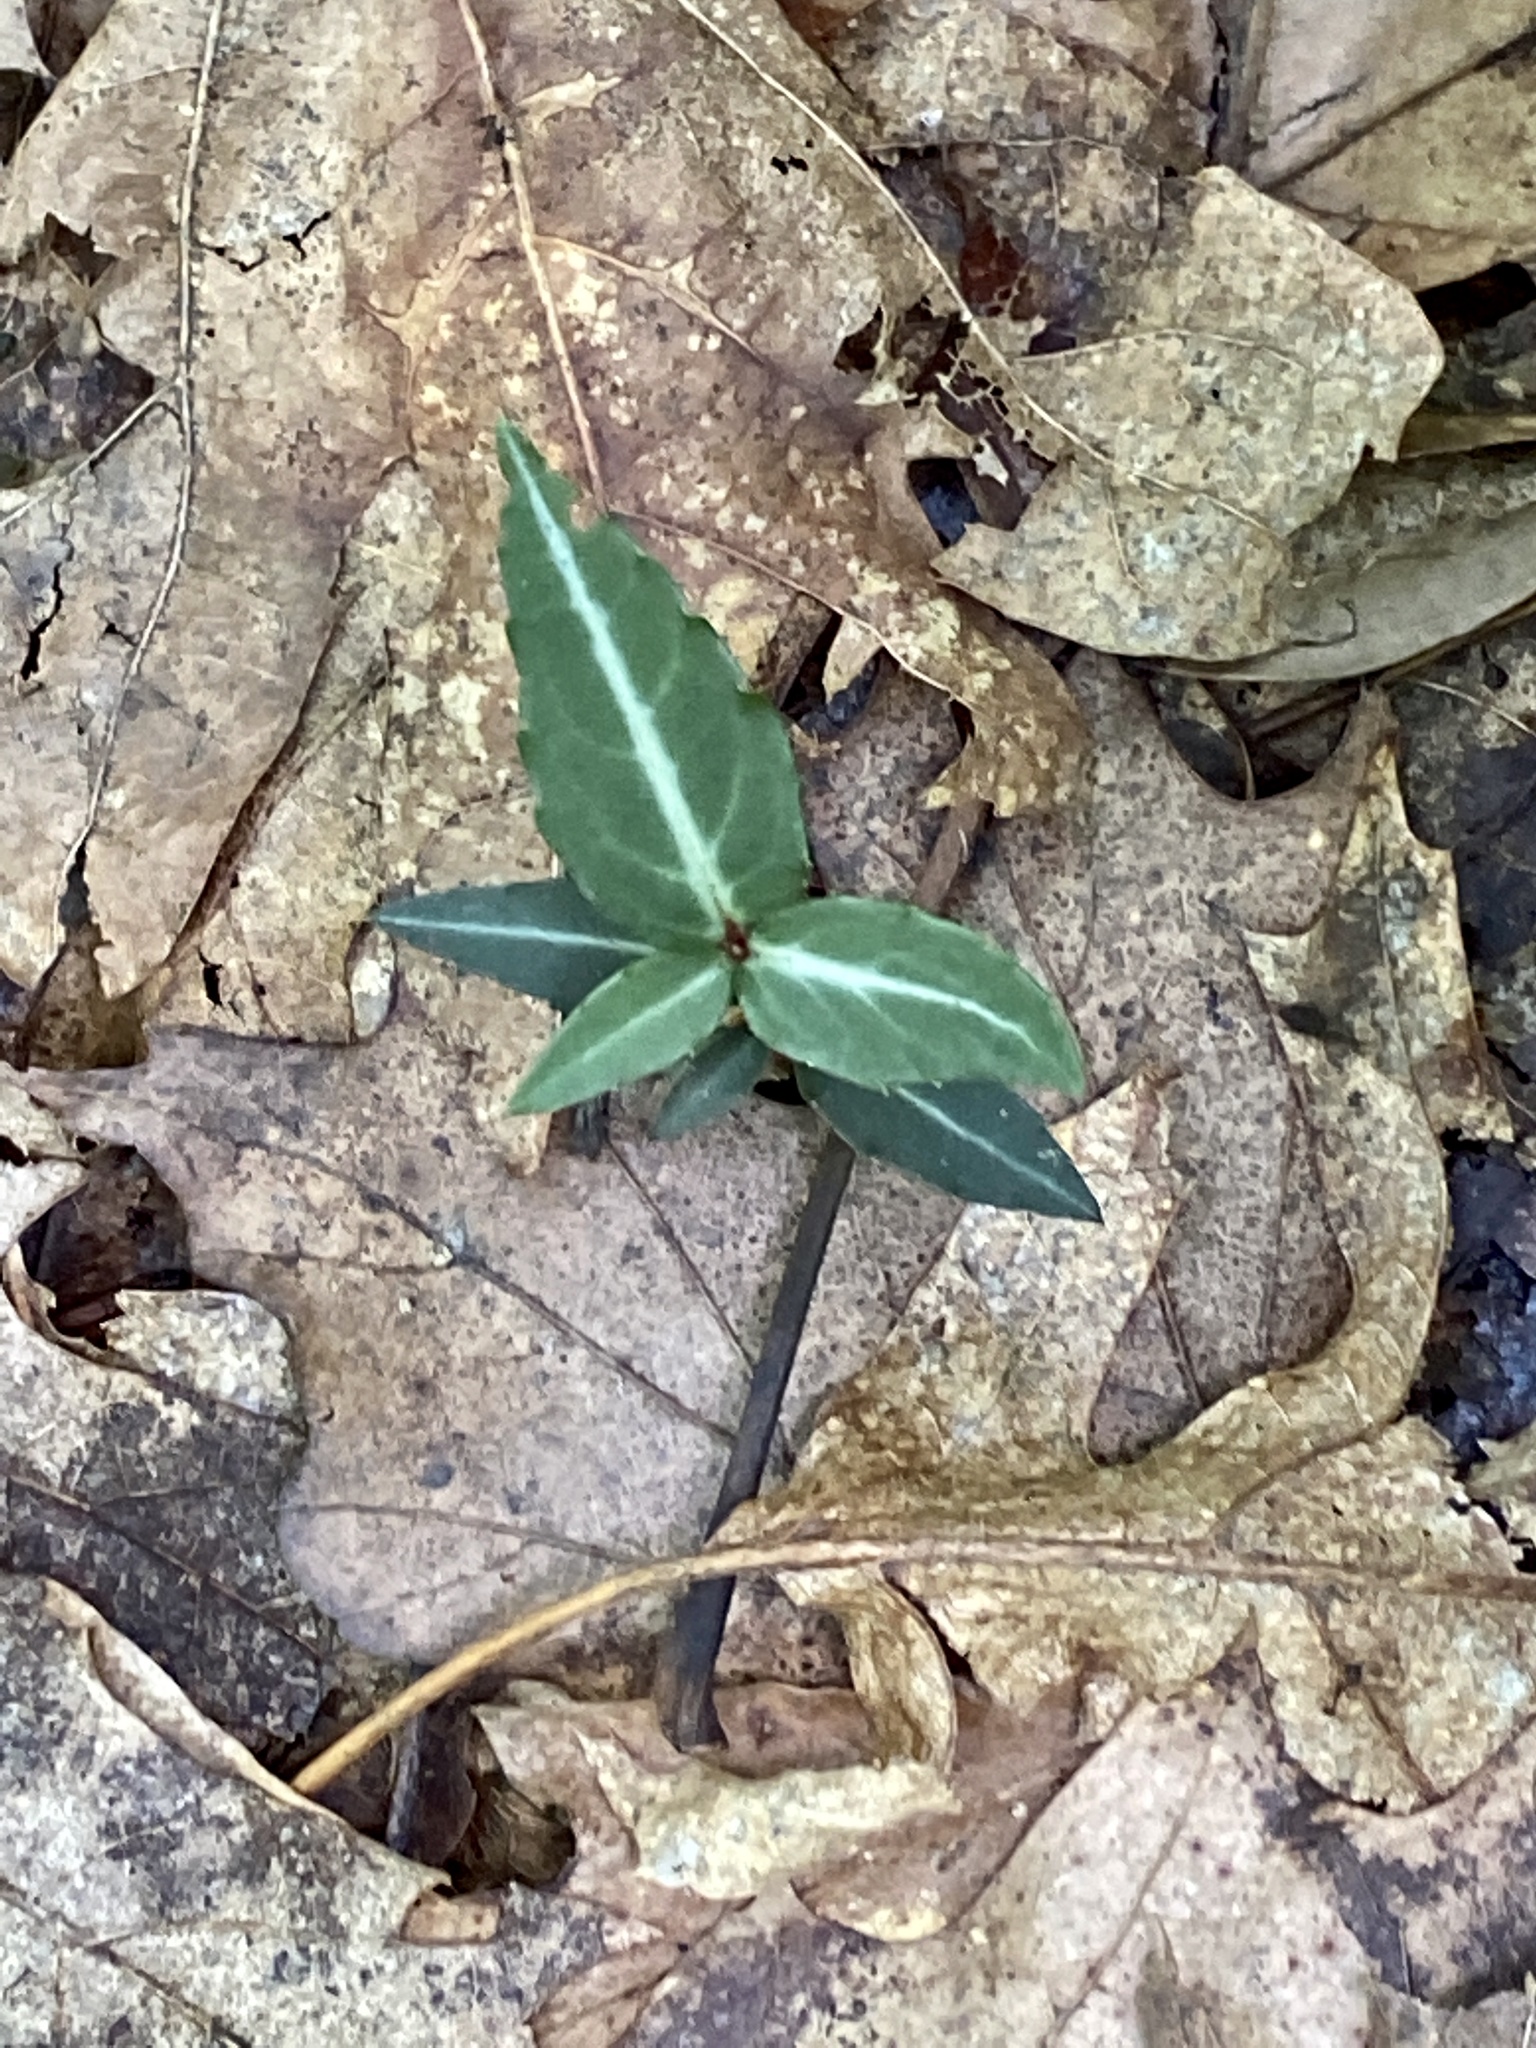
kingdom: Plantae
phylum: Tracheophyta
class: Magnoliopsida
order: Ericales
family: Ericaceae
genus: Chimaphila
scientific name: Chimaphila maculata
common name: Spotted pipsissewa
